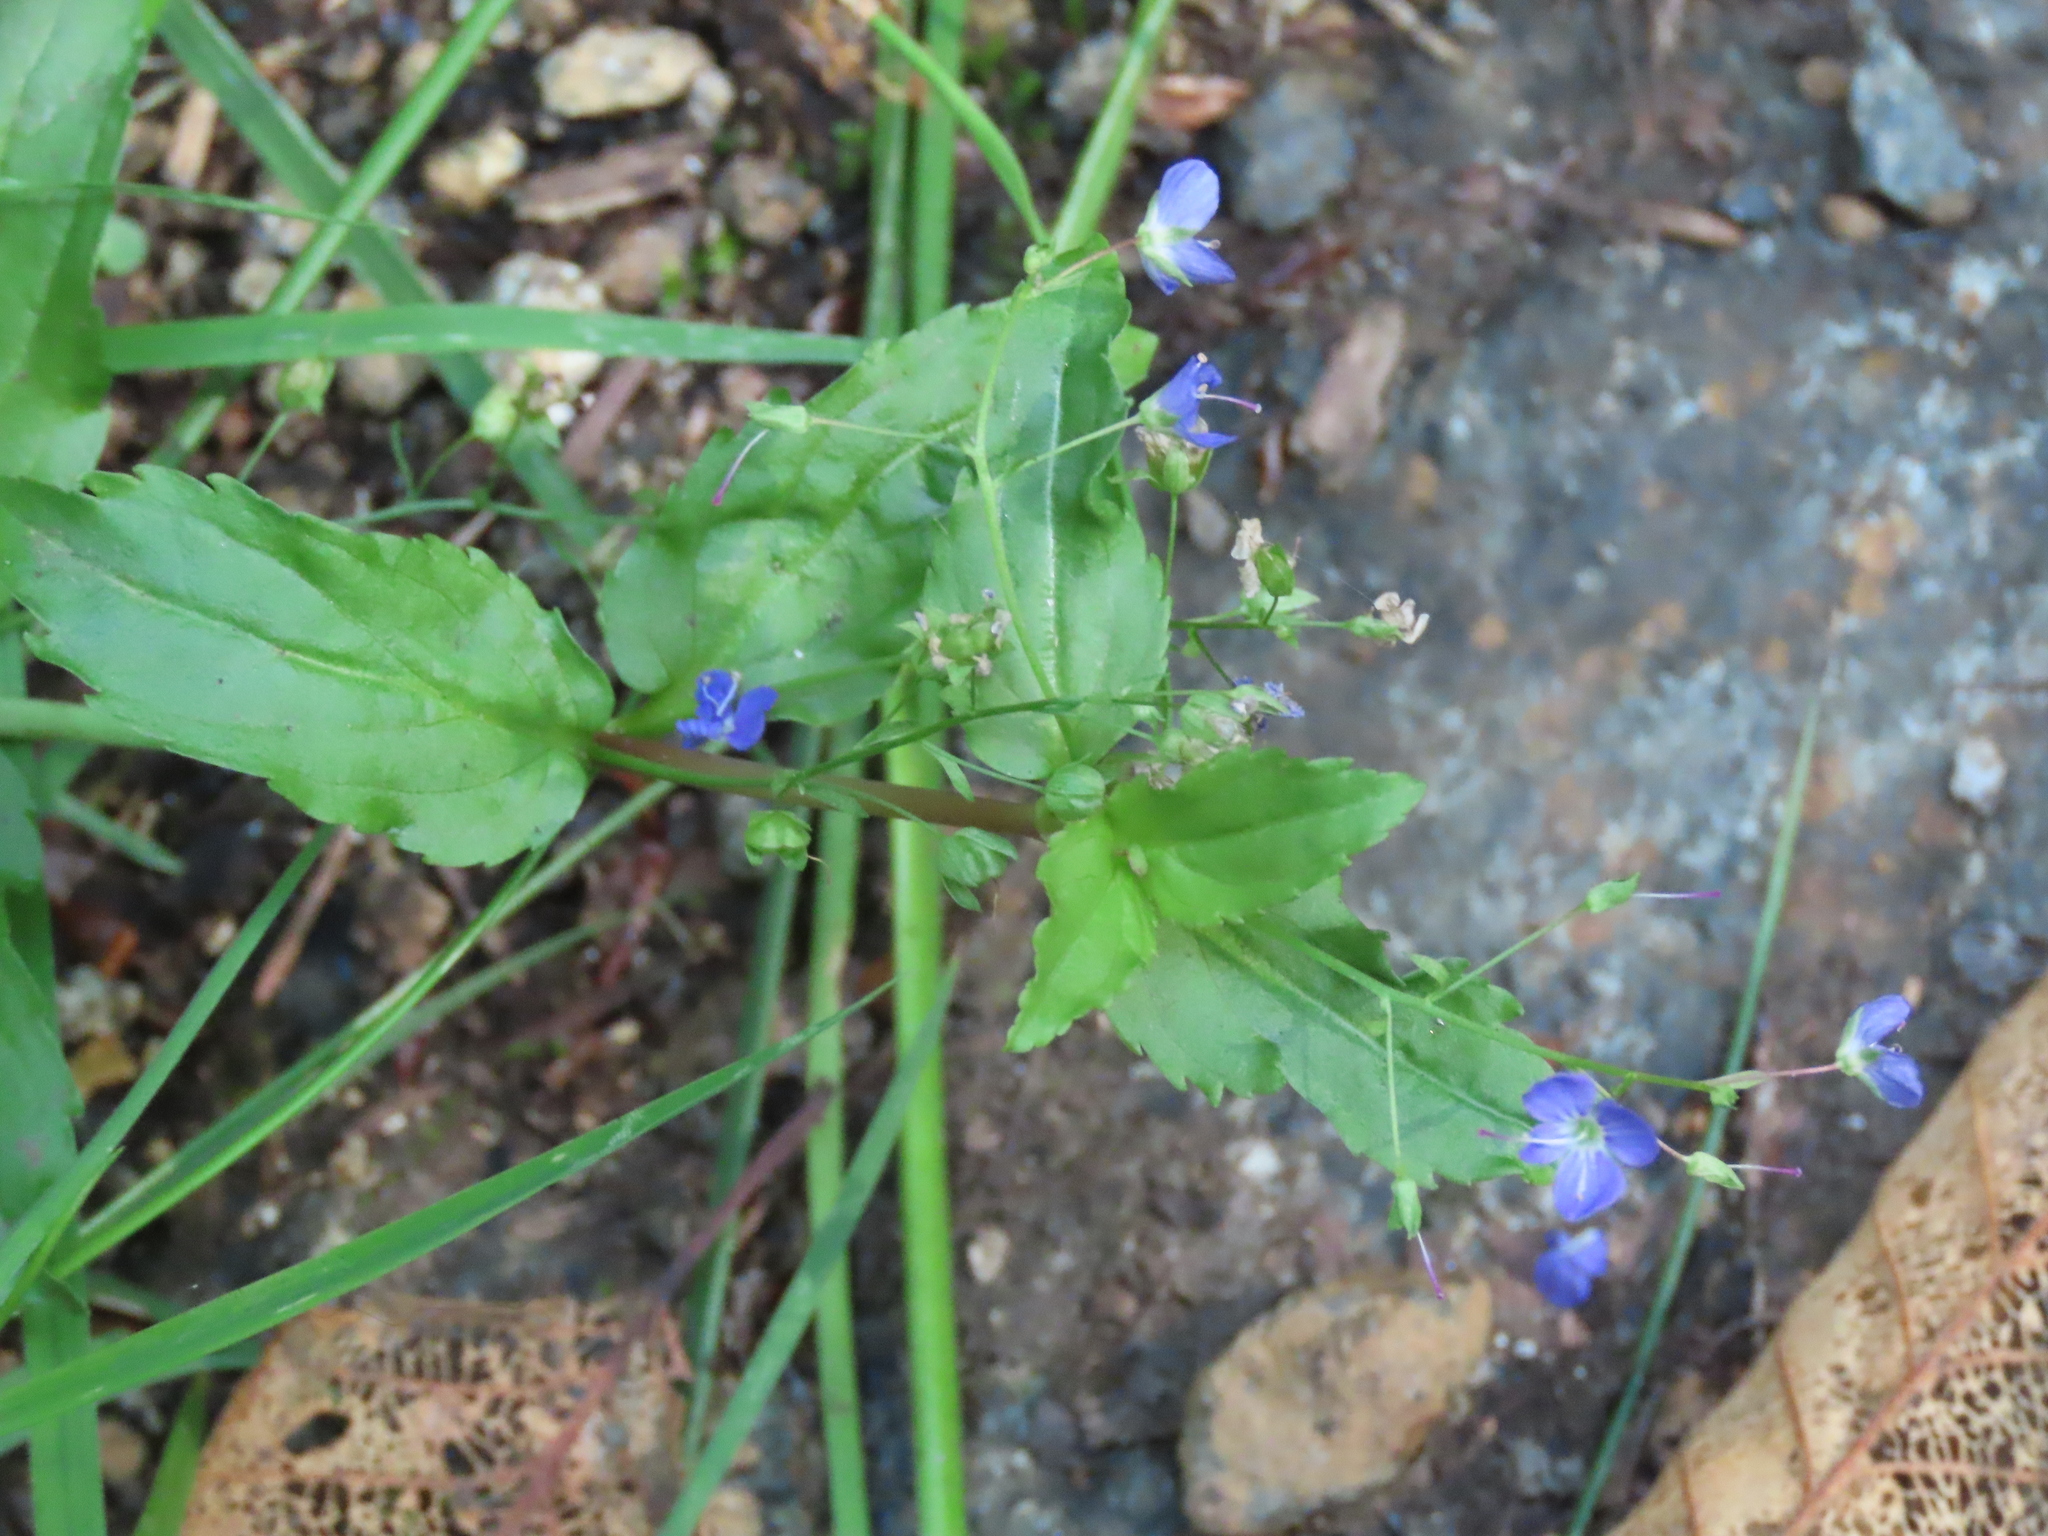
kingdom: Plantae
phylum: Tracheophyta
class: Magnoliopsida
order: Lamiales
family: Plantaginaceae
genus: Veronica
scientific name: Veronica americana
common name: American brooklime
